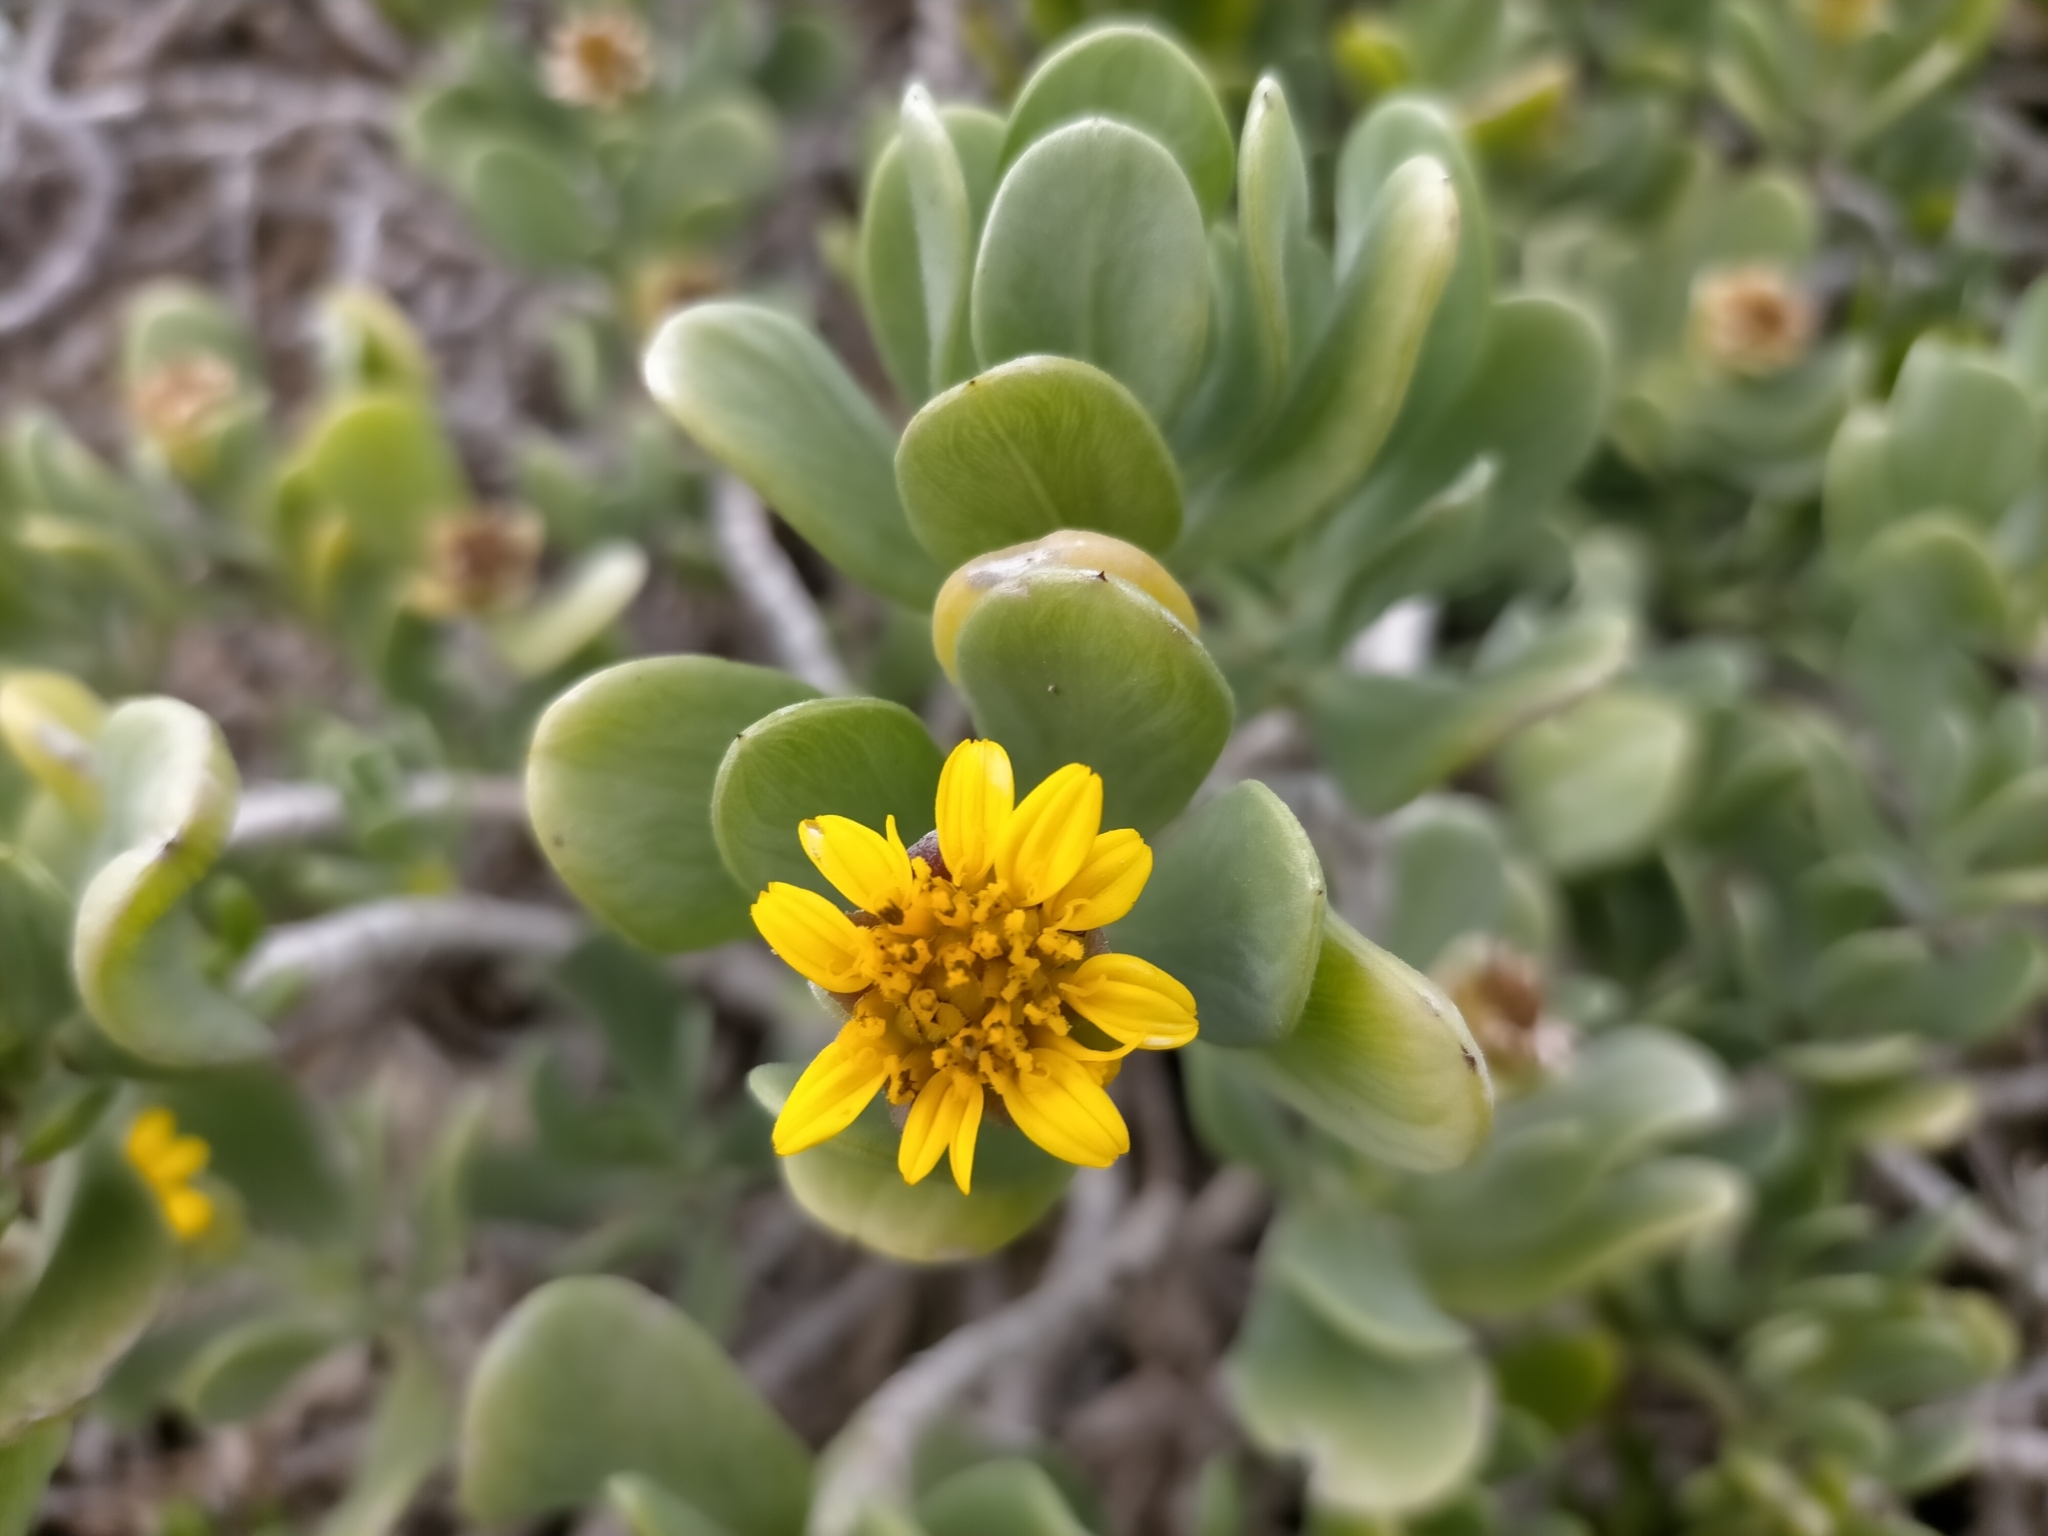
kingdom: Plantae
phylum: Tracheophyta
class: Magnoliopsida
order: Asterales
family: Asteraceae
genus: Borrichia
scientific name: Borrichia arborescens
